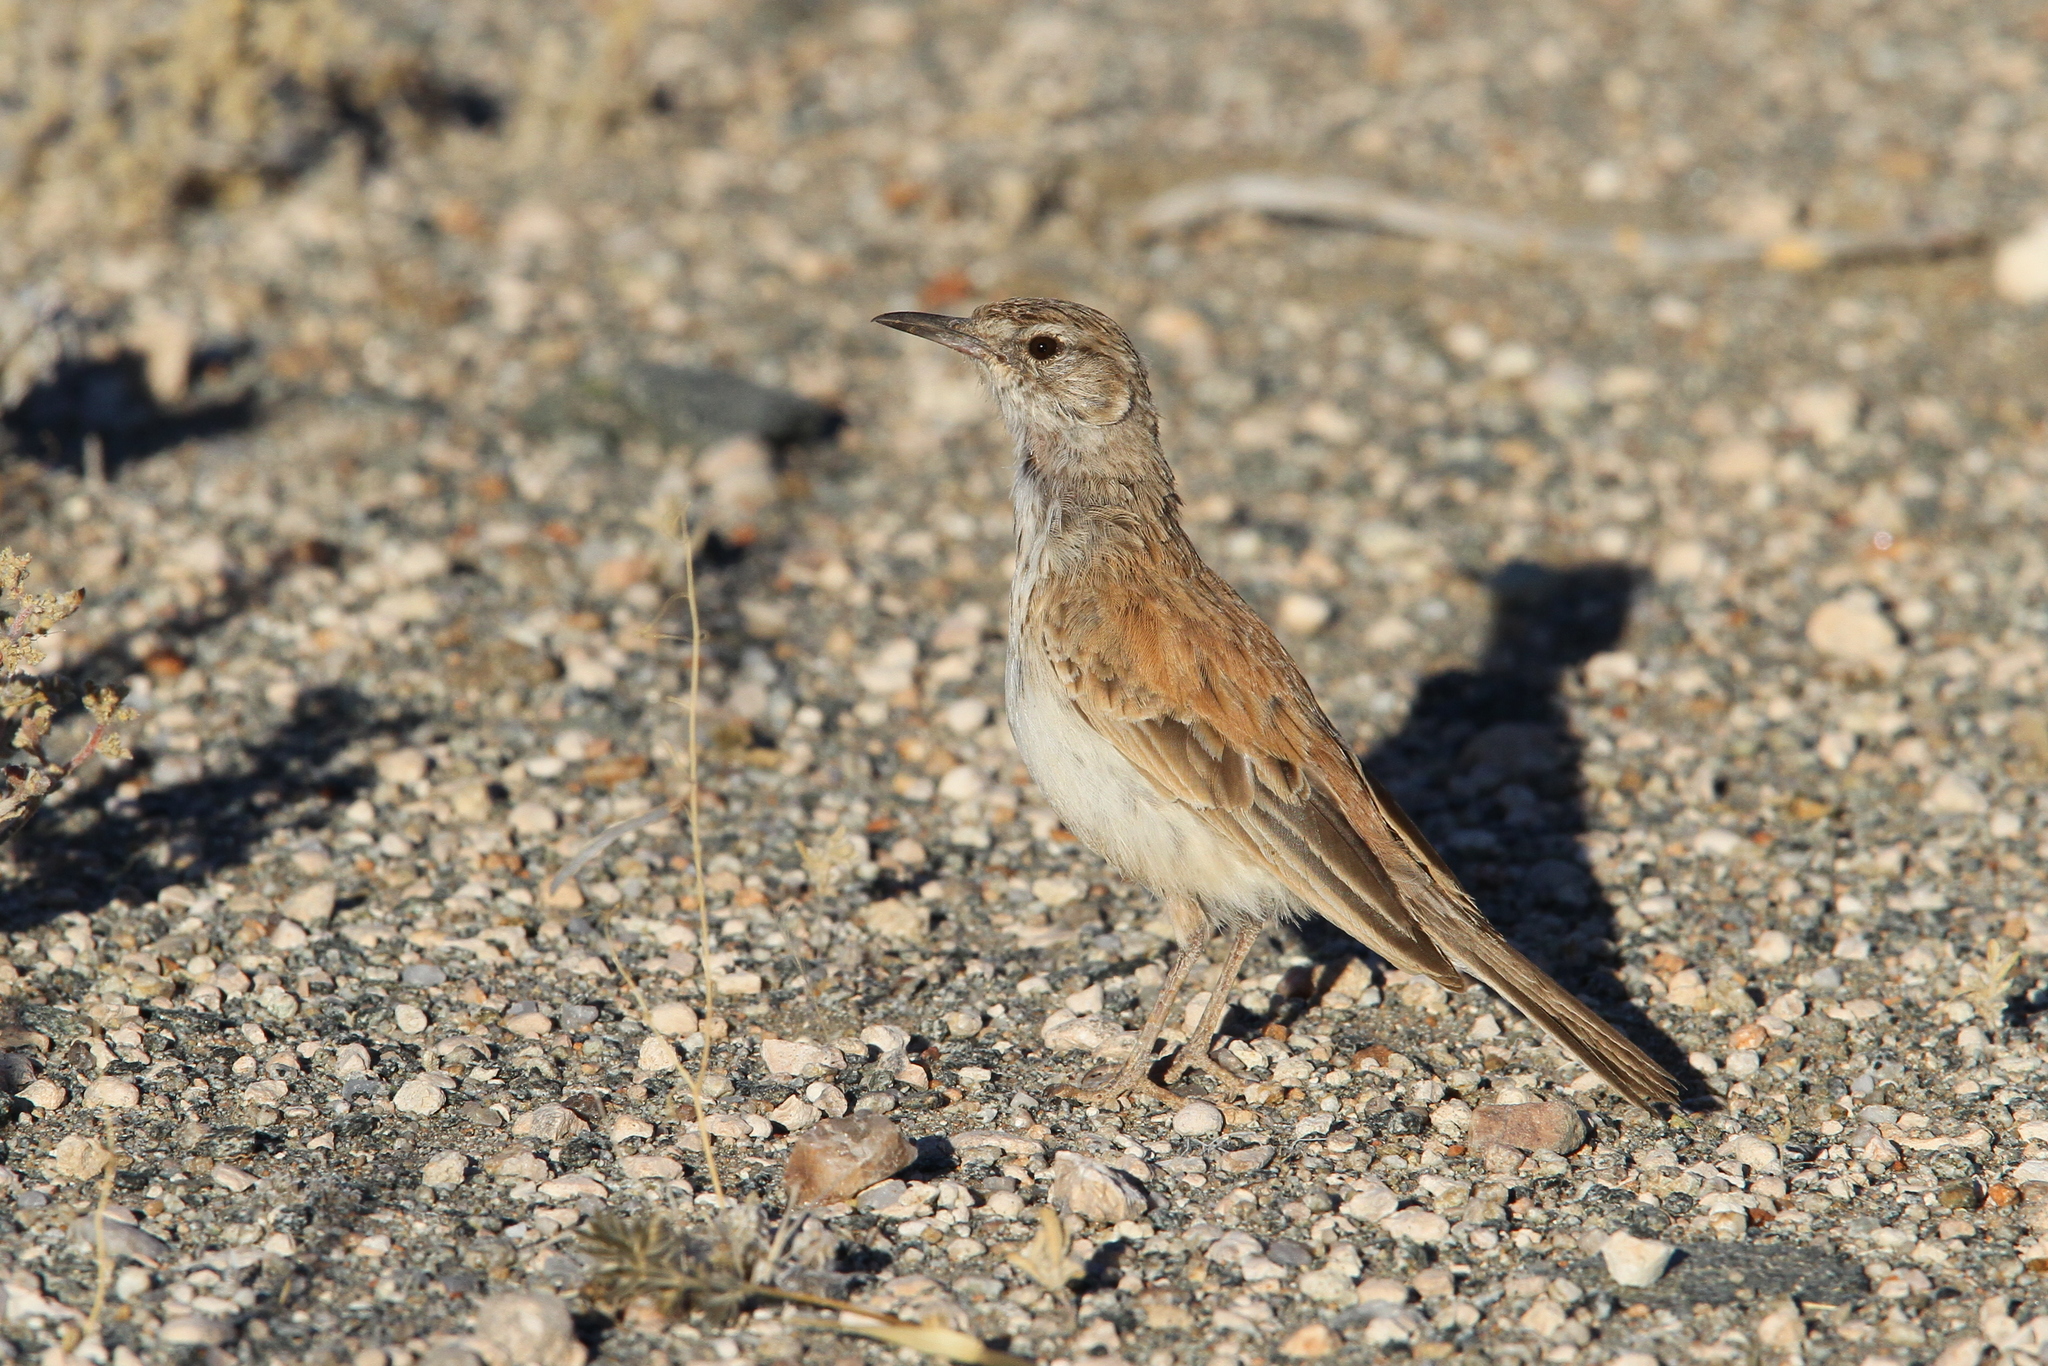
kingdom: Animalia
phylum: Chordata
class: Aves
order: Passeriformes
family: Alaudidae
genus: Certhilauda
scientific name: Certhilauda subcoronata
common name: Karoo long-billed lark
